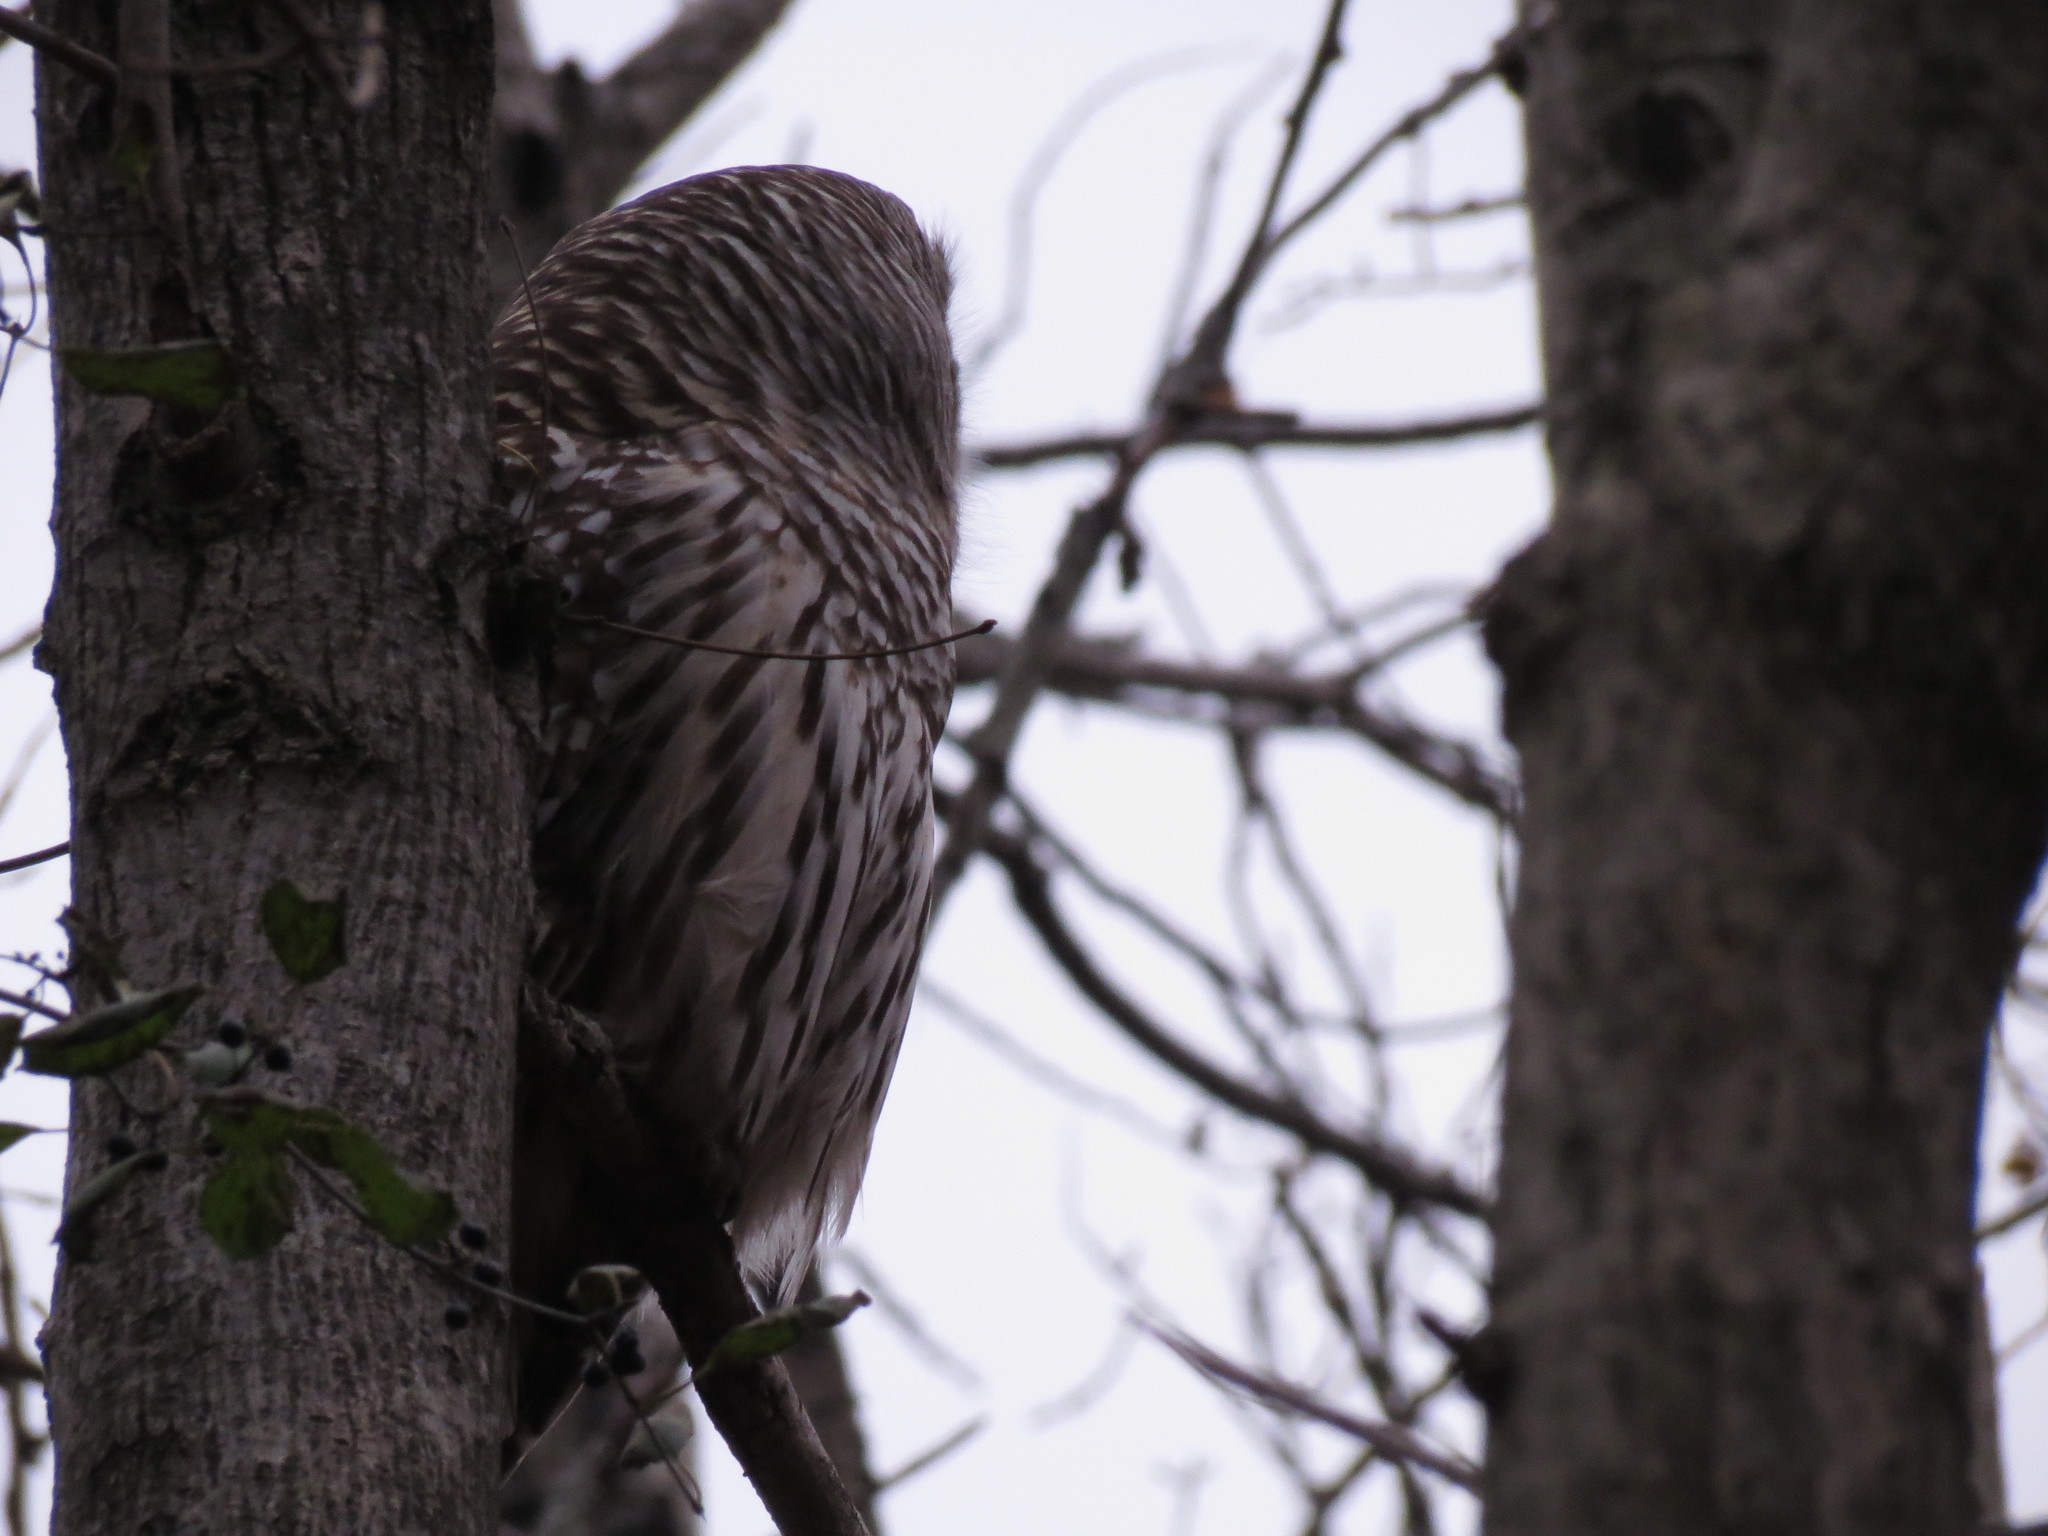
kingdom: Animalia
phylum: Chordata
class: Aves
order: Strigiformes
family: Strigidae
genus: Strix
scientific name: Strix varia
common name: Barred owl
